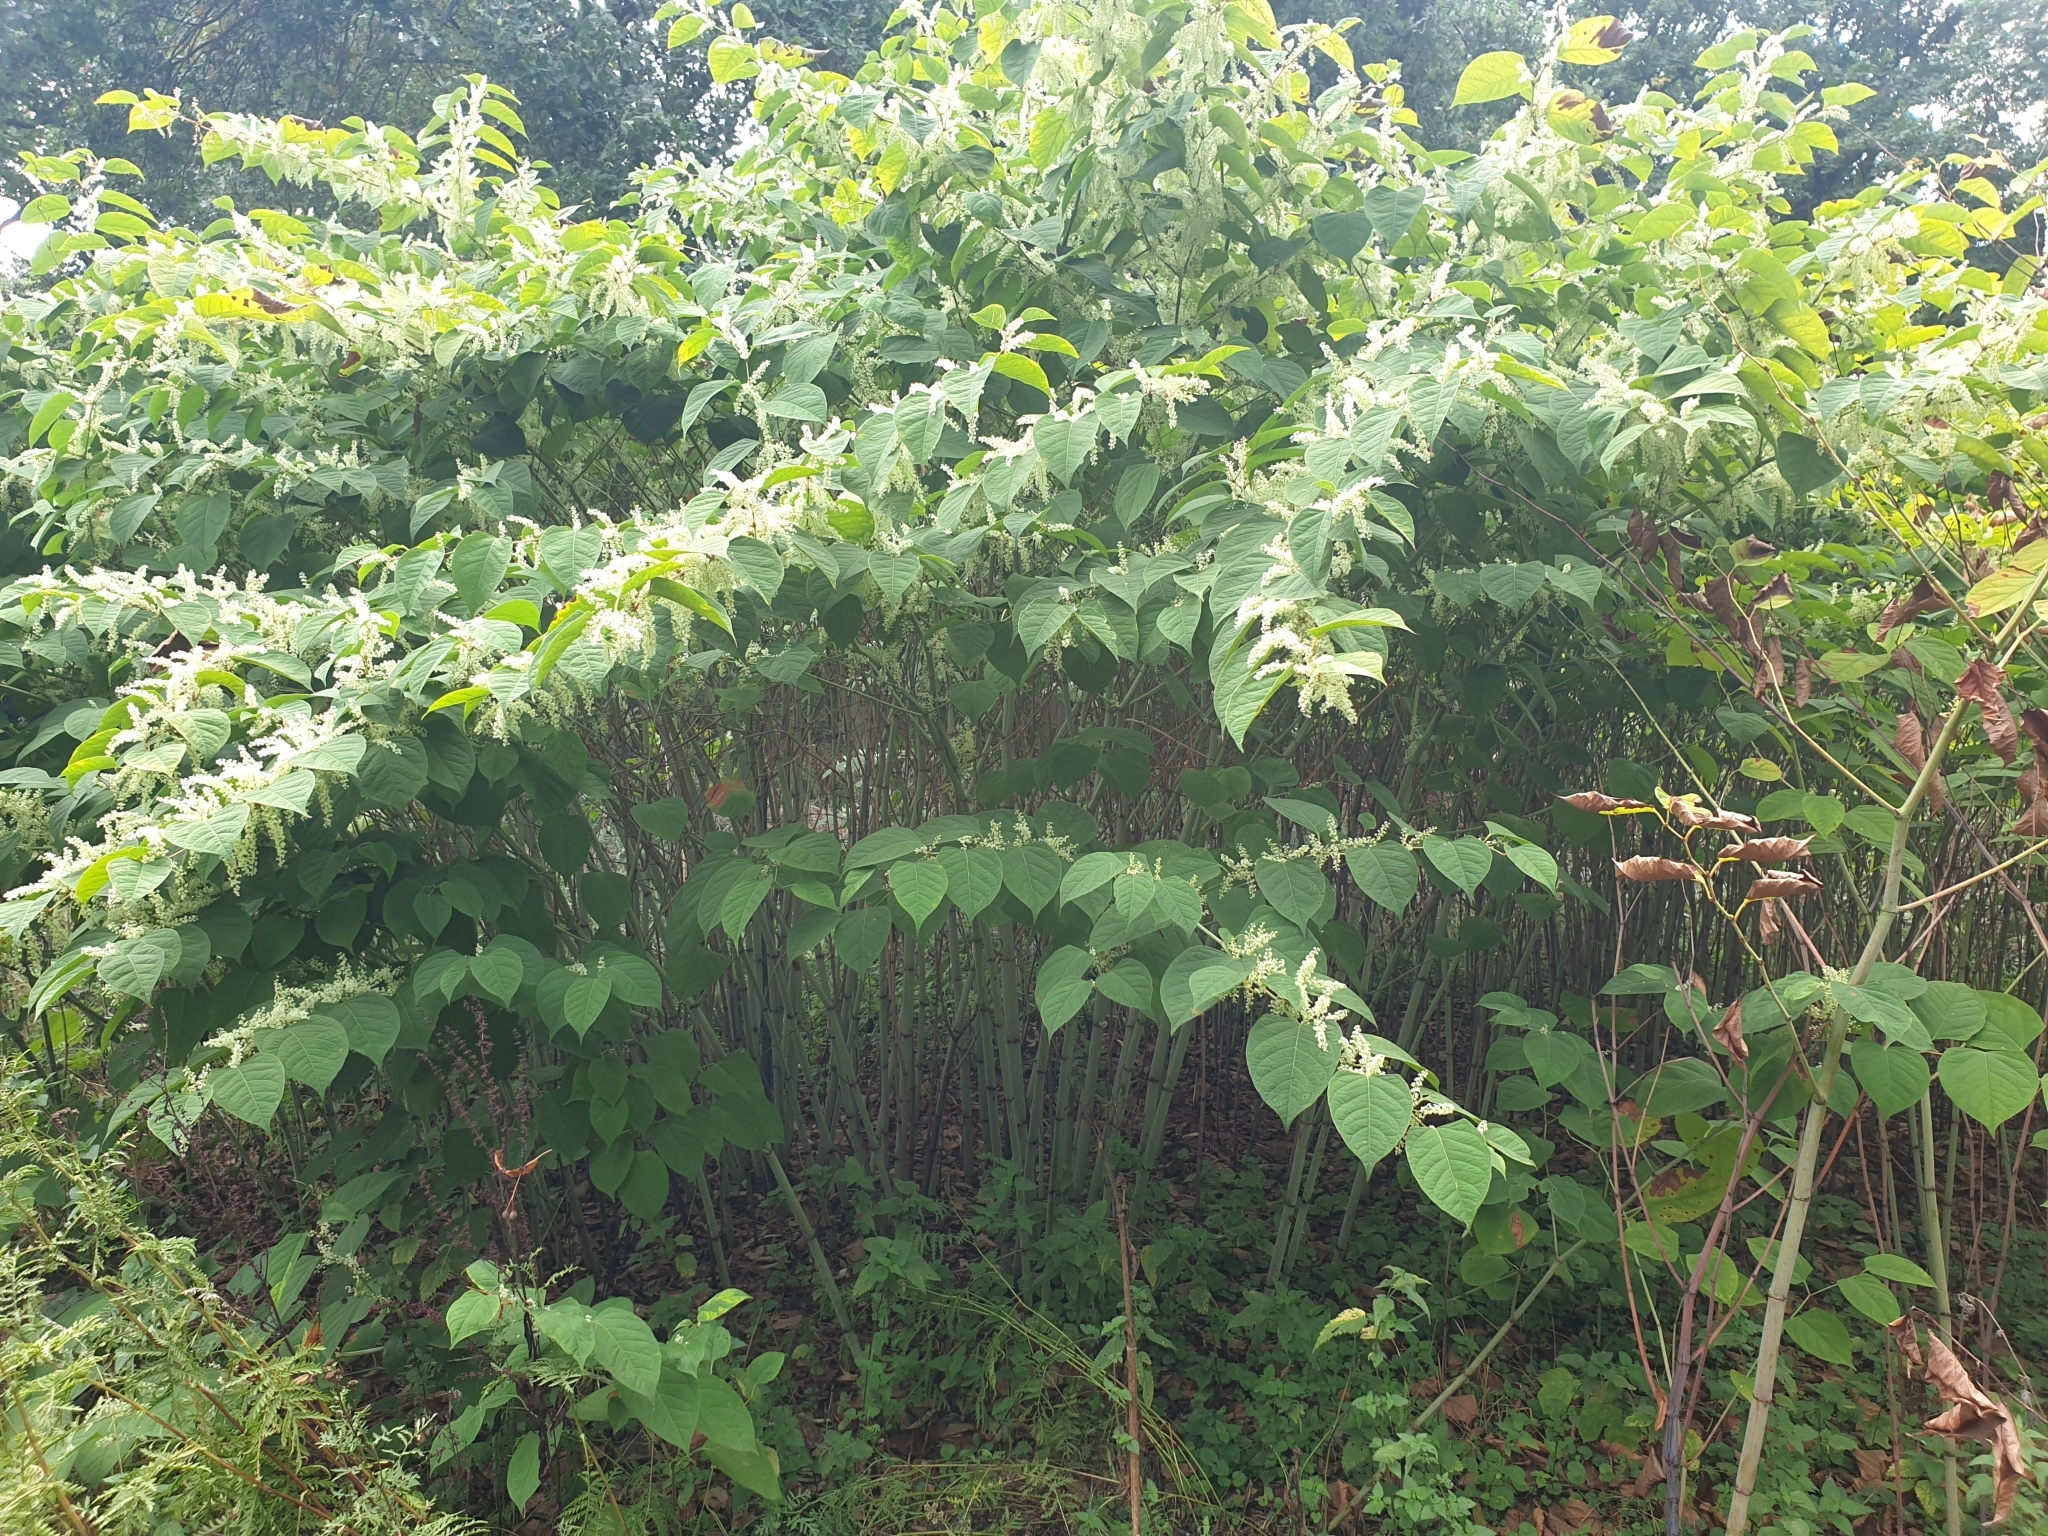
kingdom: Plantae
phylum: Tracheophyta
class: Magnoliopsida
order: Caryophyllales
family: Polygonaceae
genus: Reynoutria
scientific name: Reynoutria japonica
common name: Japanese knotweed
